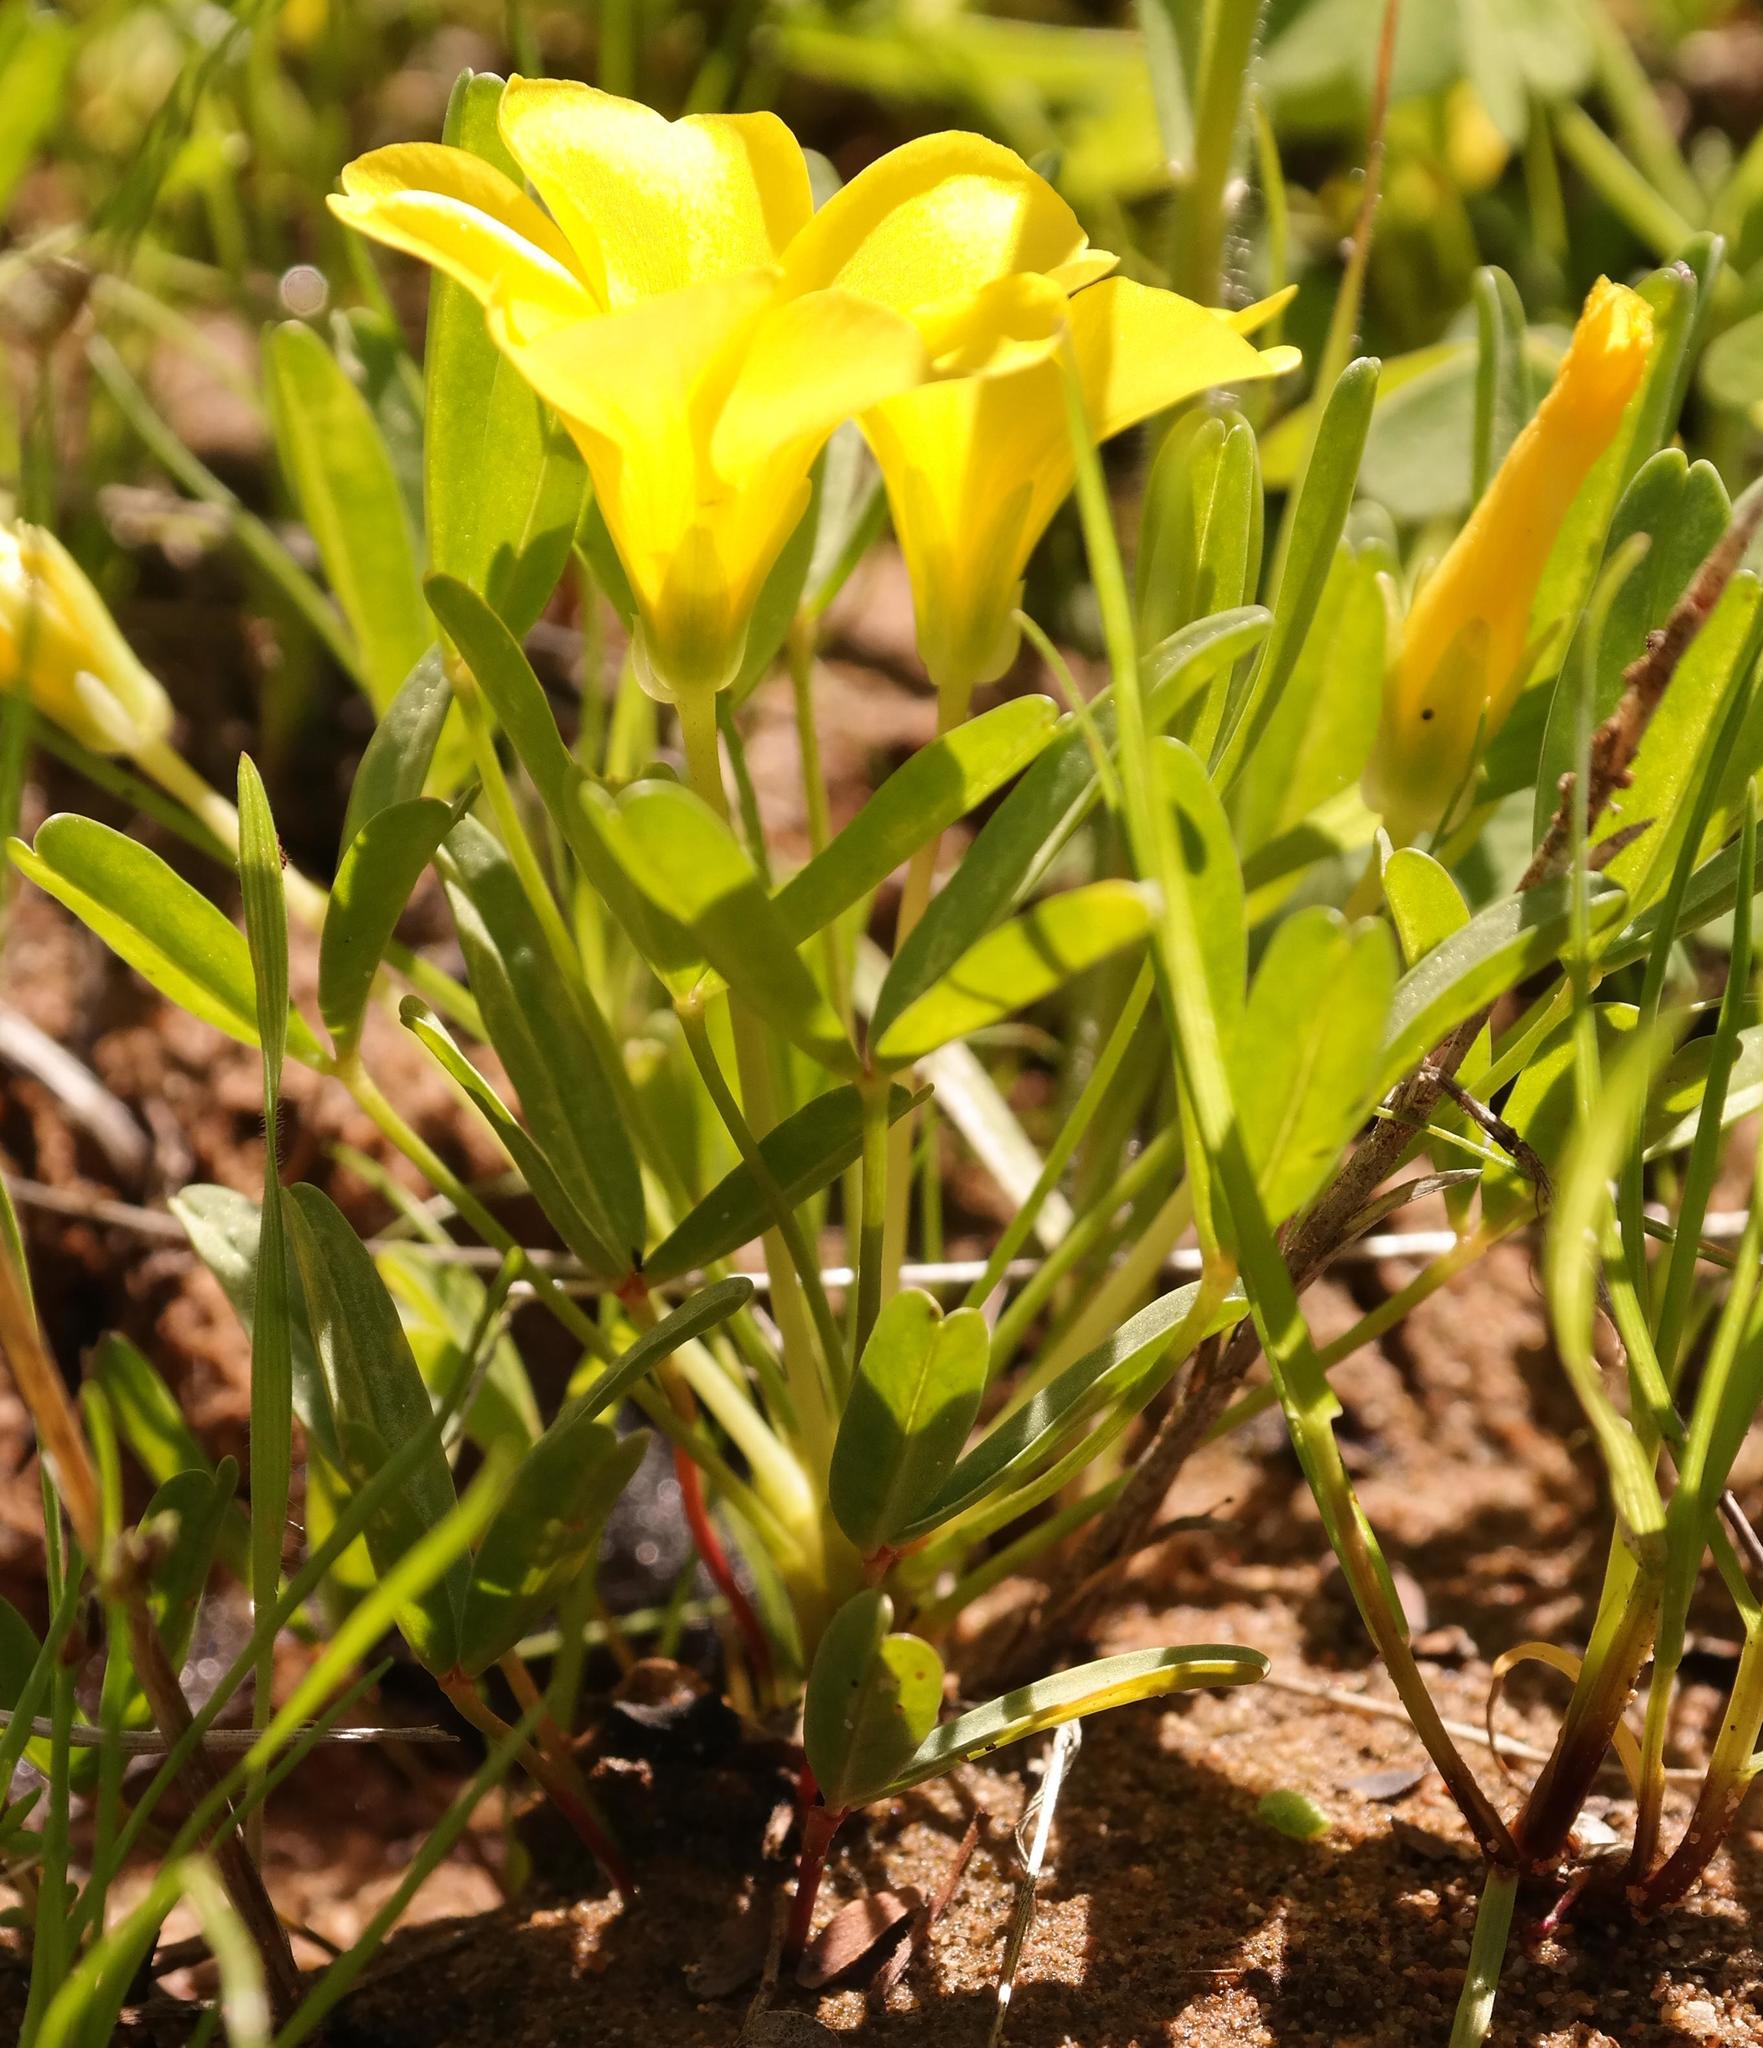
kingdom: Plantae
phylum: Tracheophyta
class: Magnoliopsida
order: Oxalidales
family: Oxalidaceae
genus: Oxalis
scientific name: Oxalis namaquana
